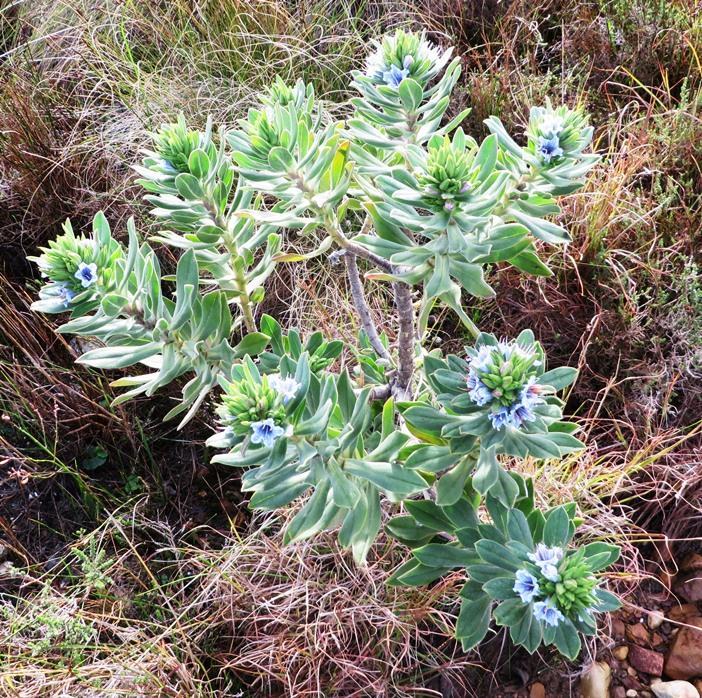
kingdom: Plantae
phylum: Tracheophyta
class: Magnoliopsida
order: Boraginales
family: Boraginaceae
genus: Lobostemon
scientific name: Lobostemon montanus
